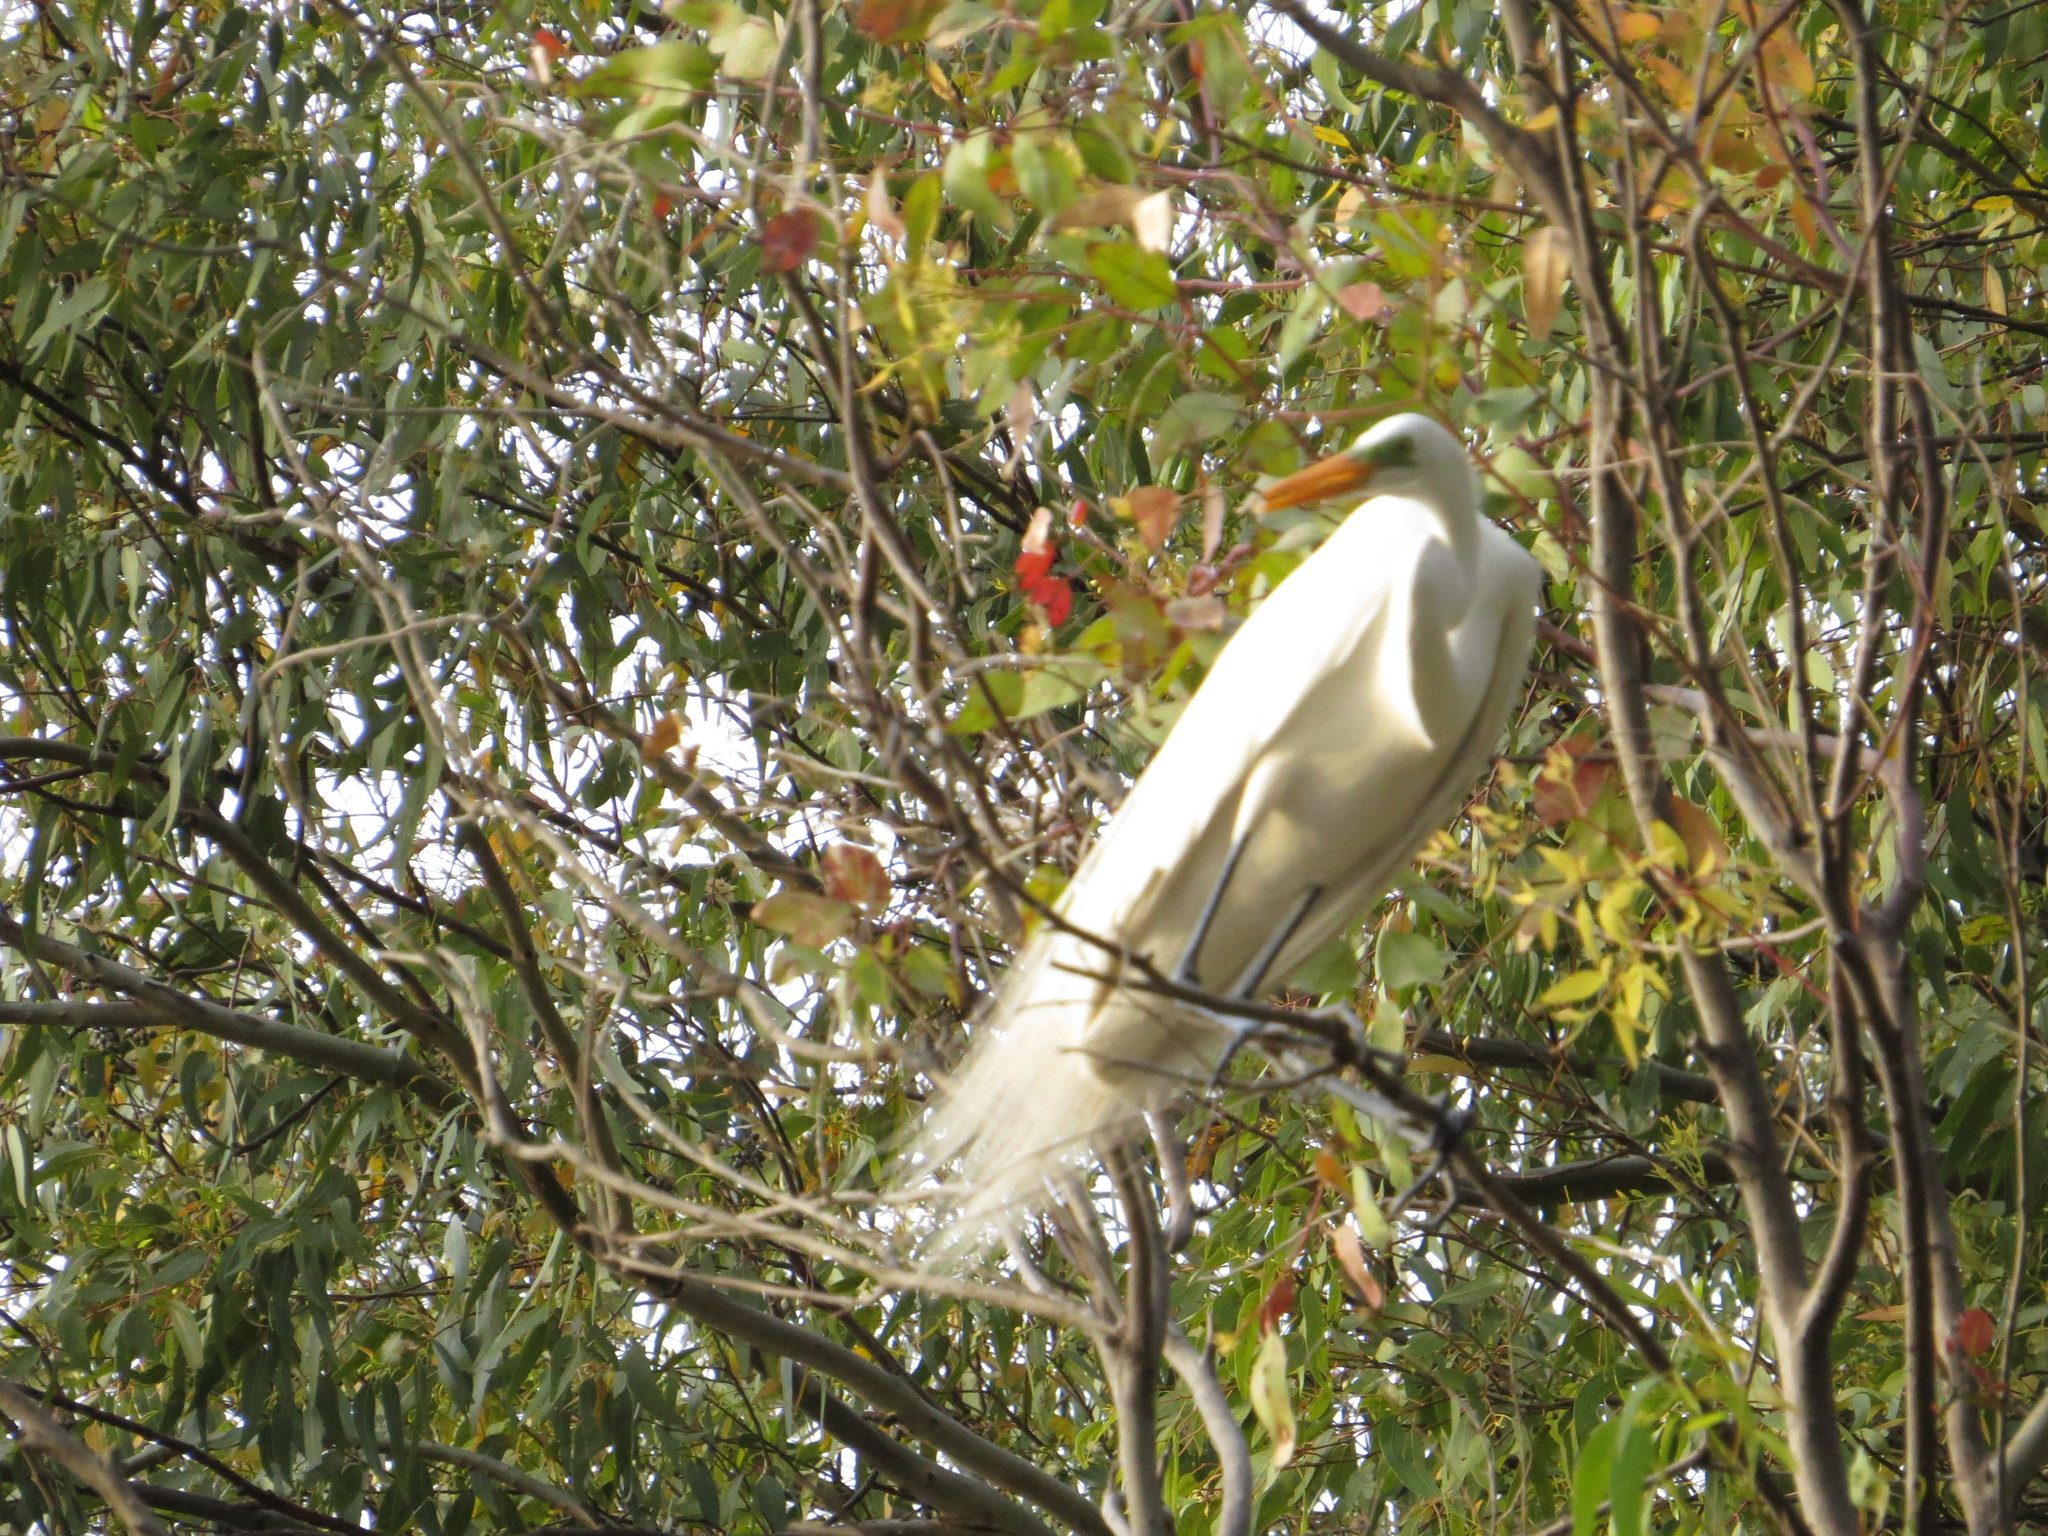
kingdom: Animalia
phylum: Chordata
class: Aves
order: Pelecaniformes
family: Ardeidae
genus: Ardea
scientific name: Ardea alba
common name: Great egret
